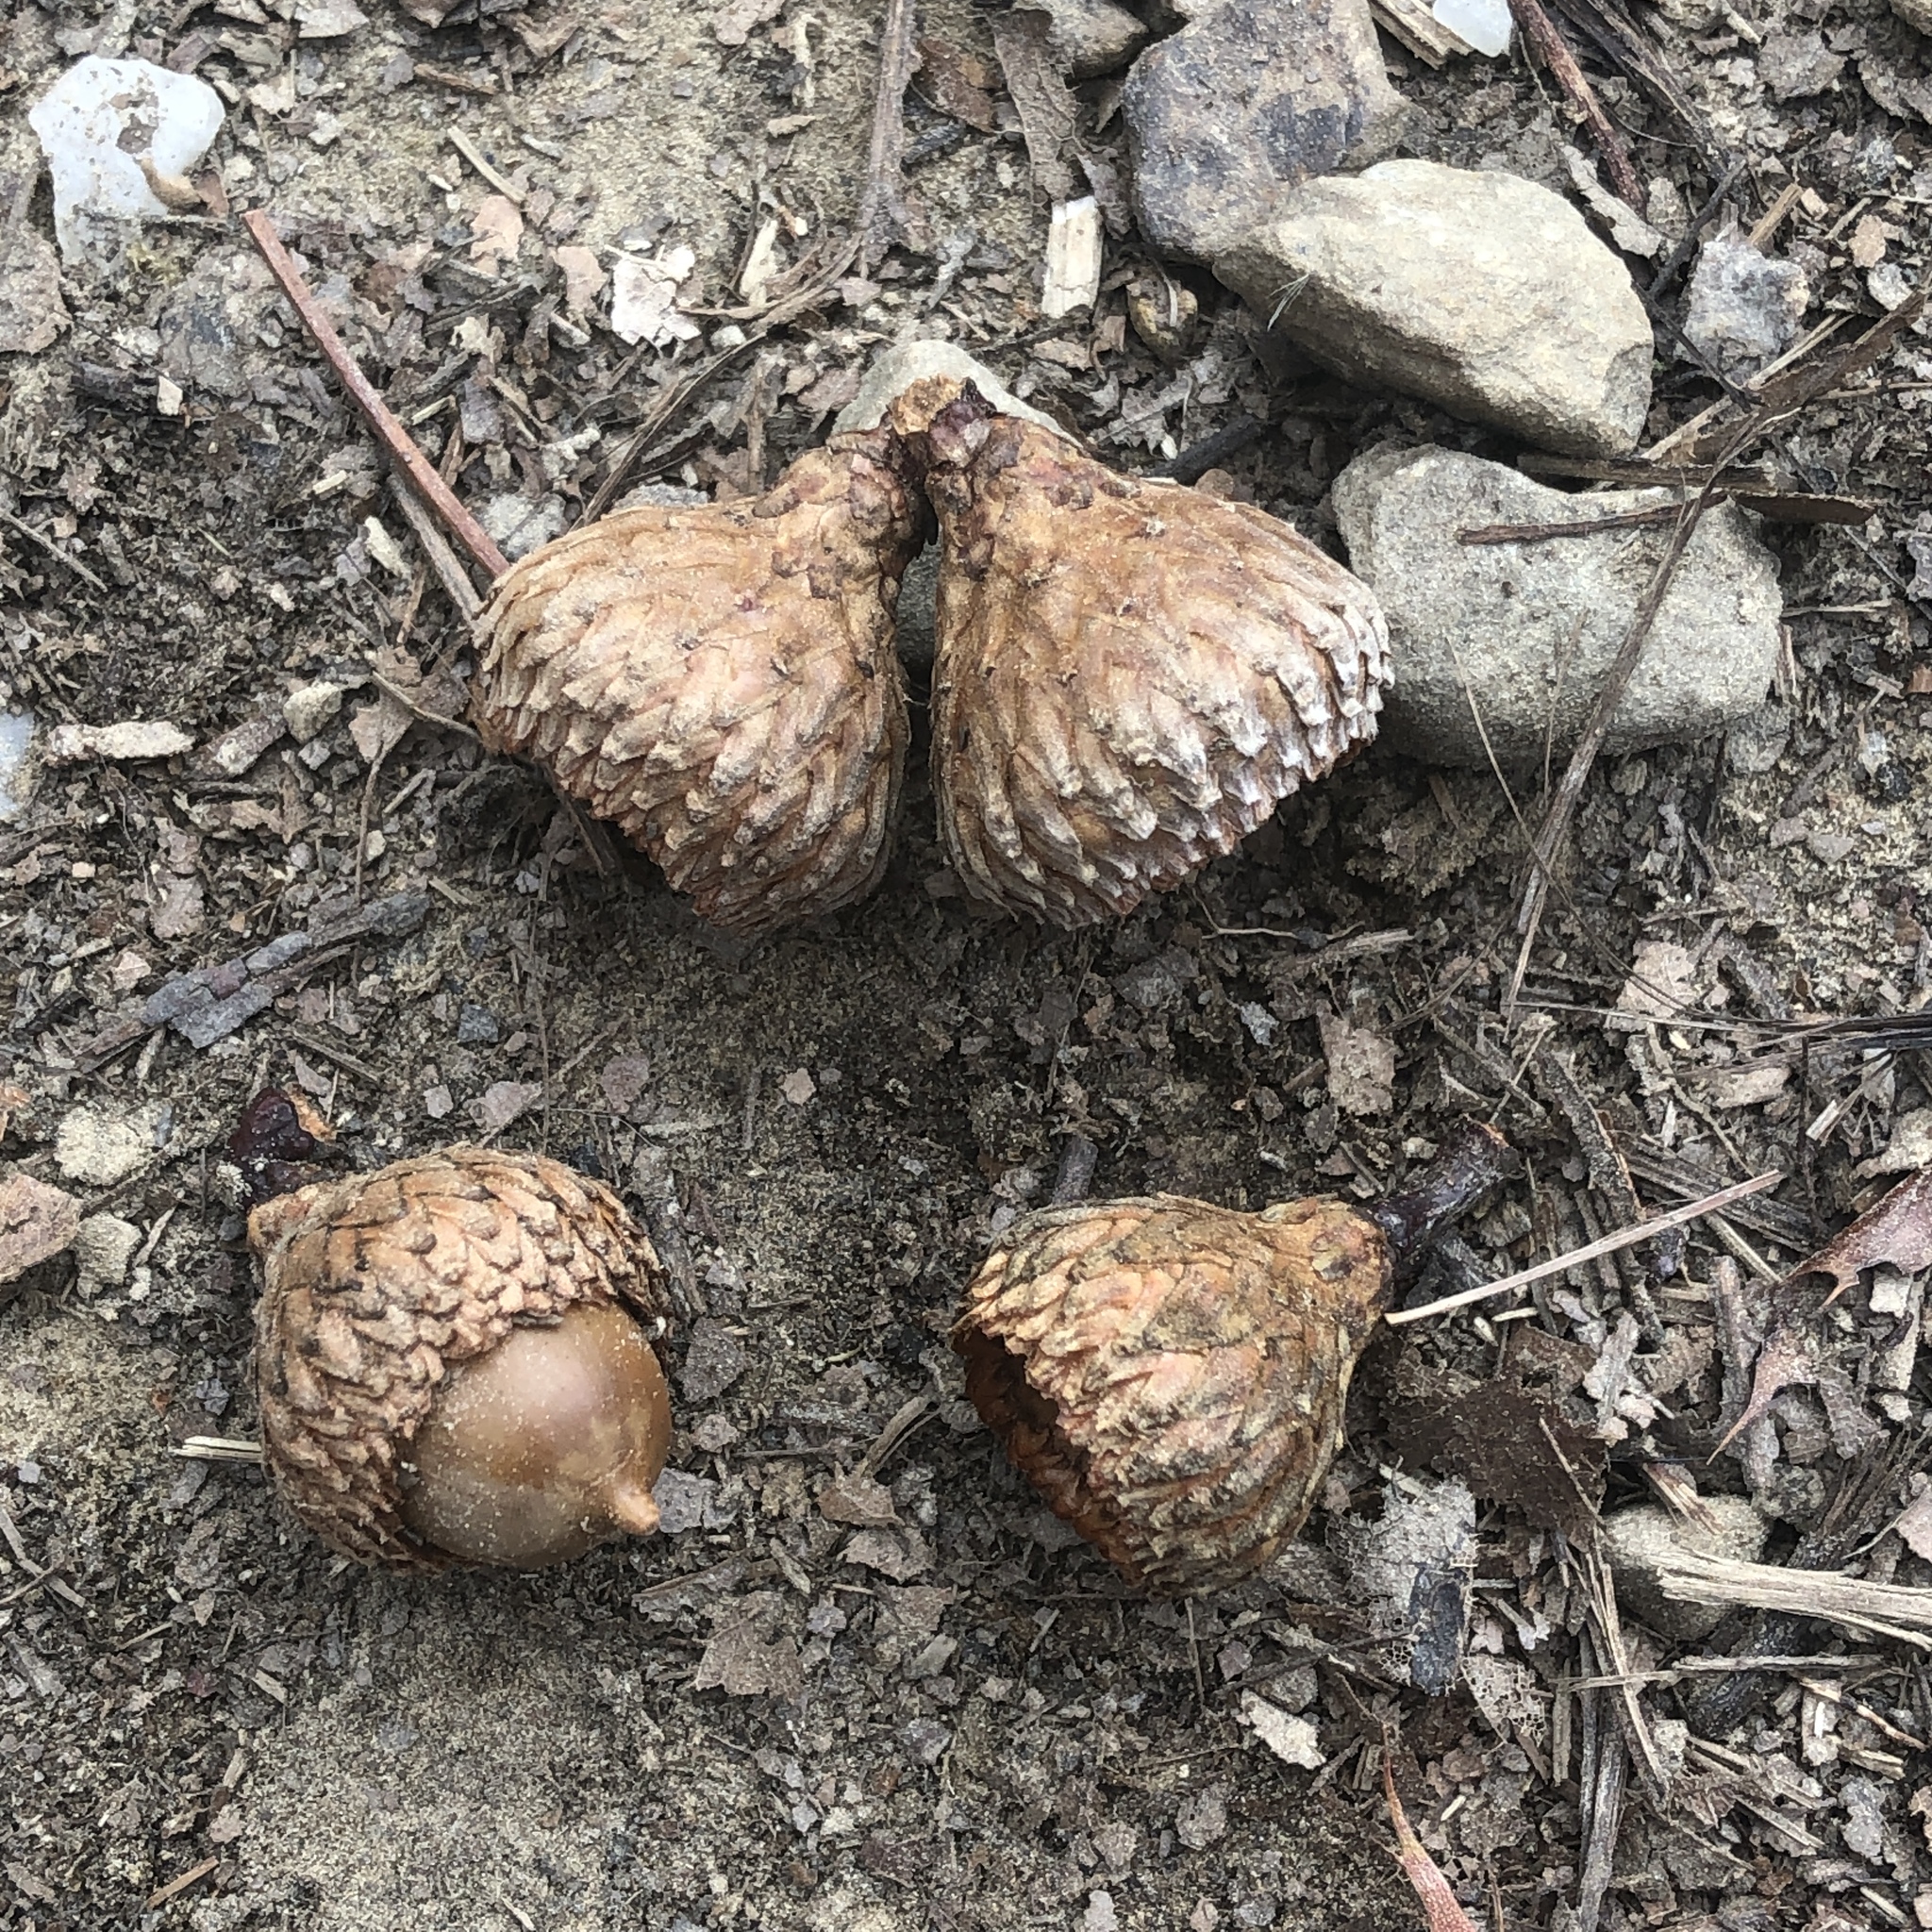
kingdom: Plantae
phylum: Tracheophyta
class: Magnoliopsida
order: Fagales
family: Fagaceae
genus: Quercus
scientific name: Quercus coccinea
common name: Scarlet oak
